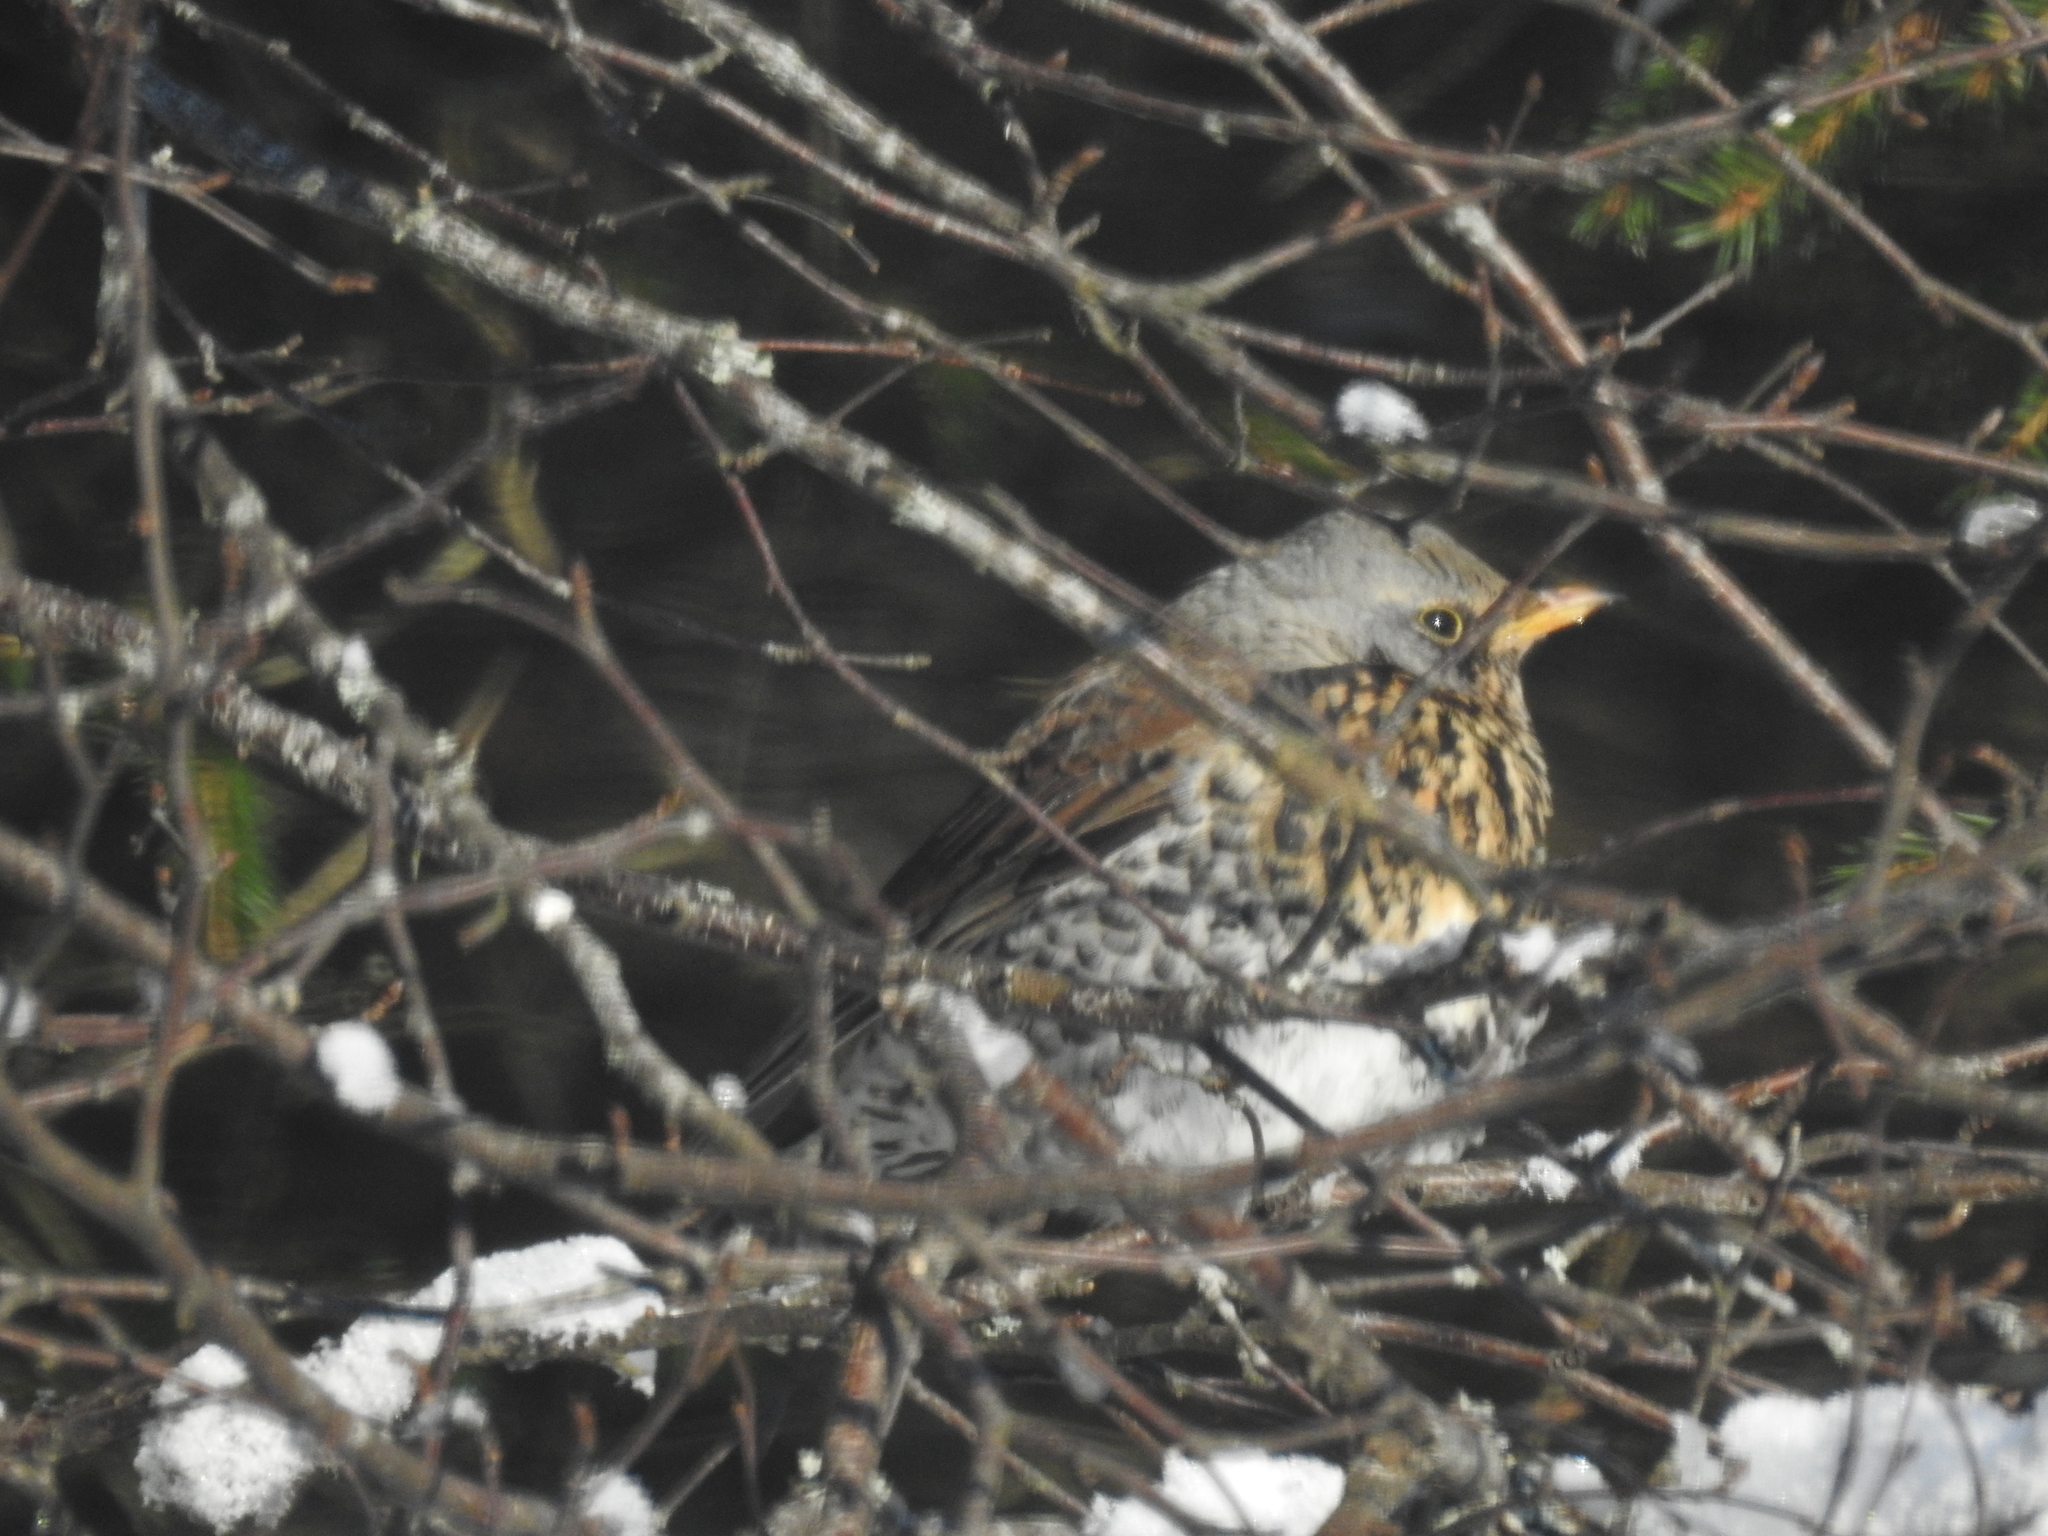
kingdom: Animalia
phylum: Chordata
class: Aves
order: Passeriformes
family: Turdidae
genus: Turdus
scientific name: Turdus pilaris
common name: Fieldfare
